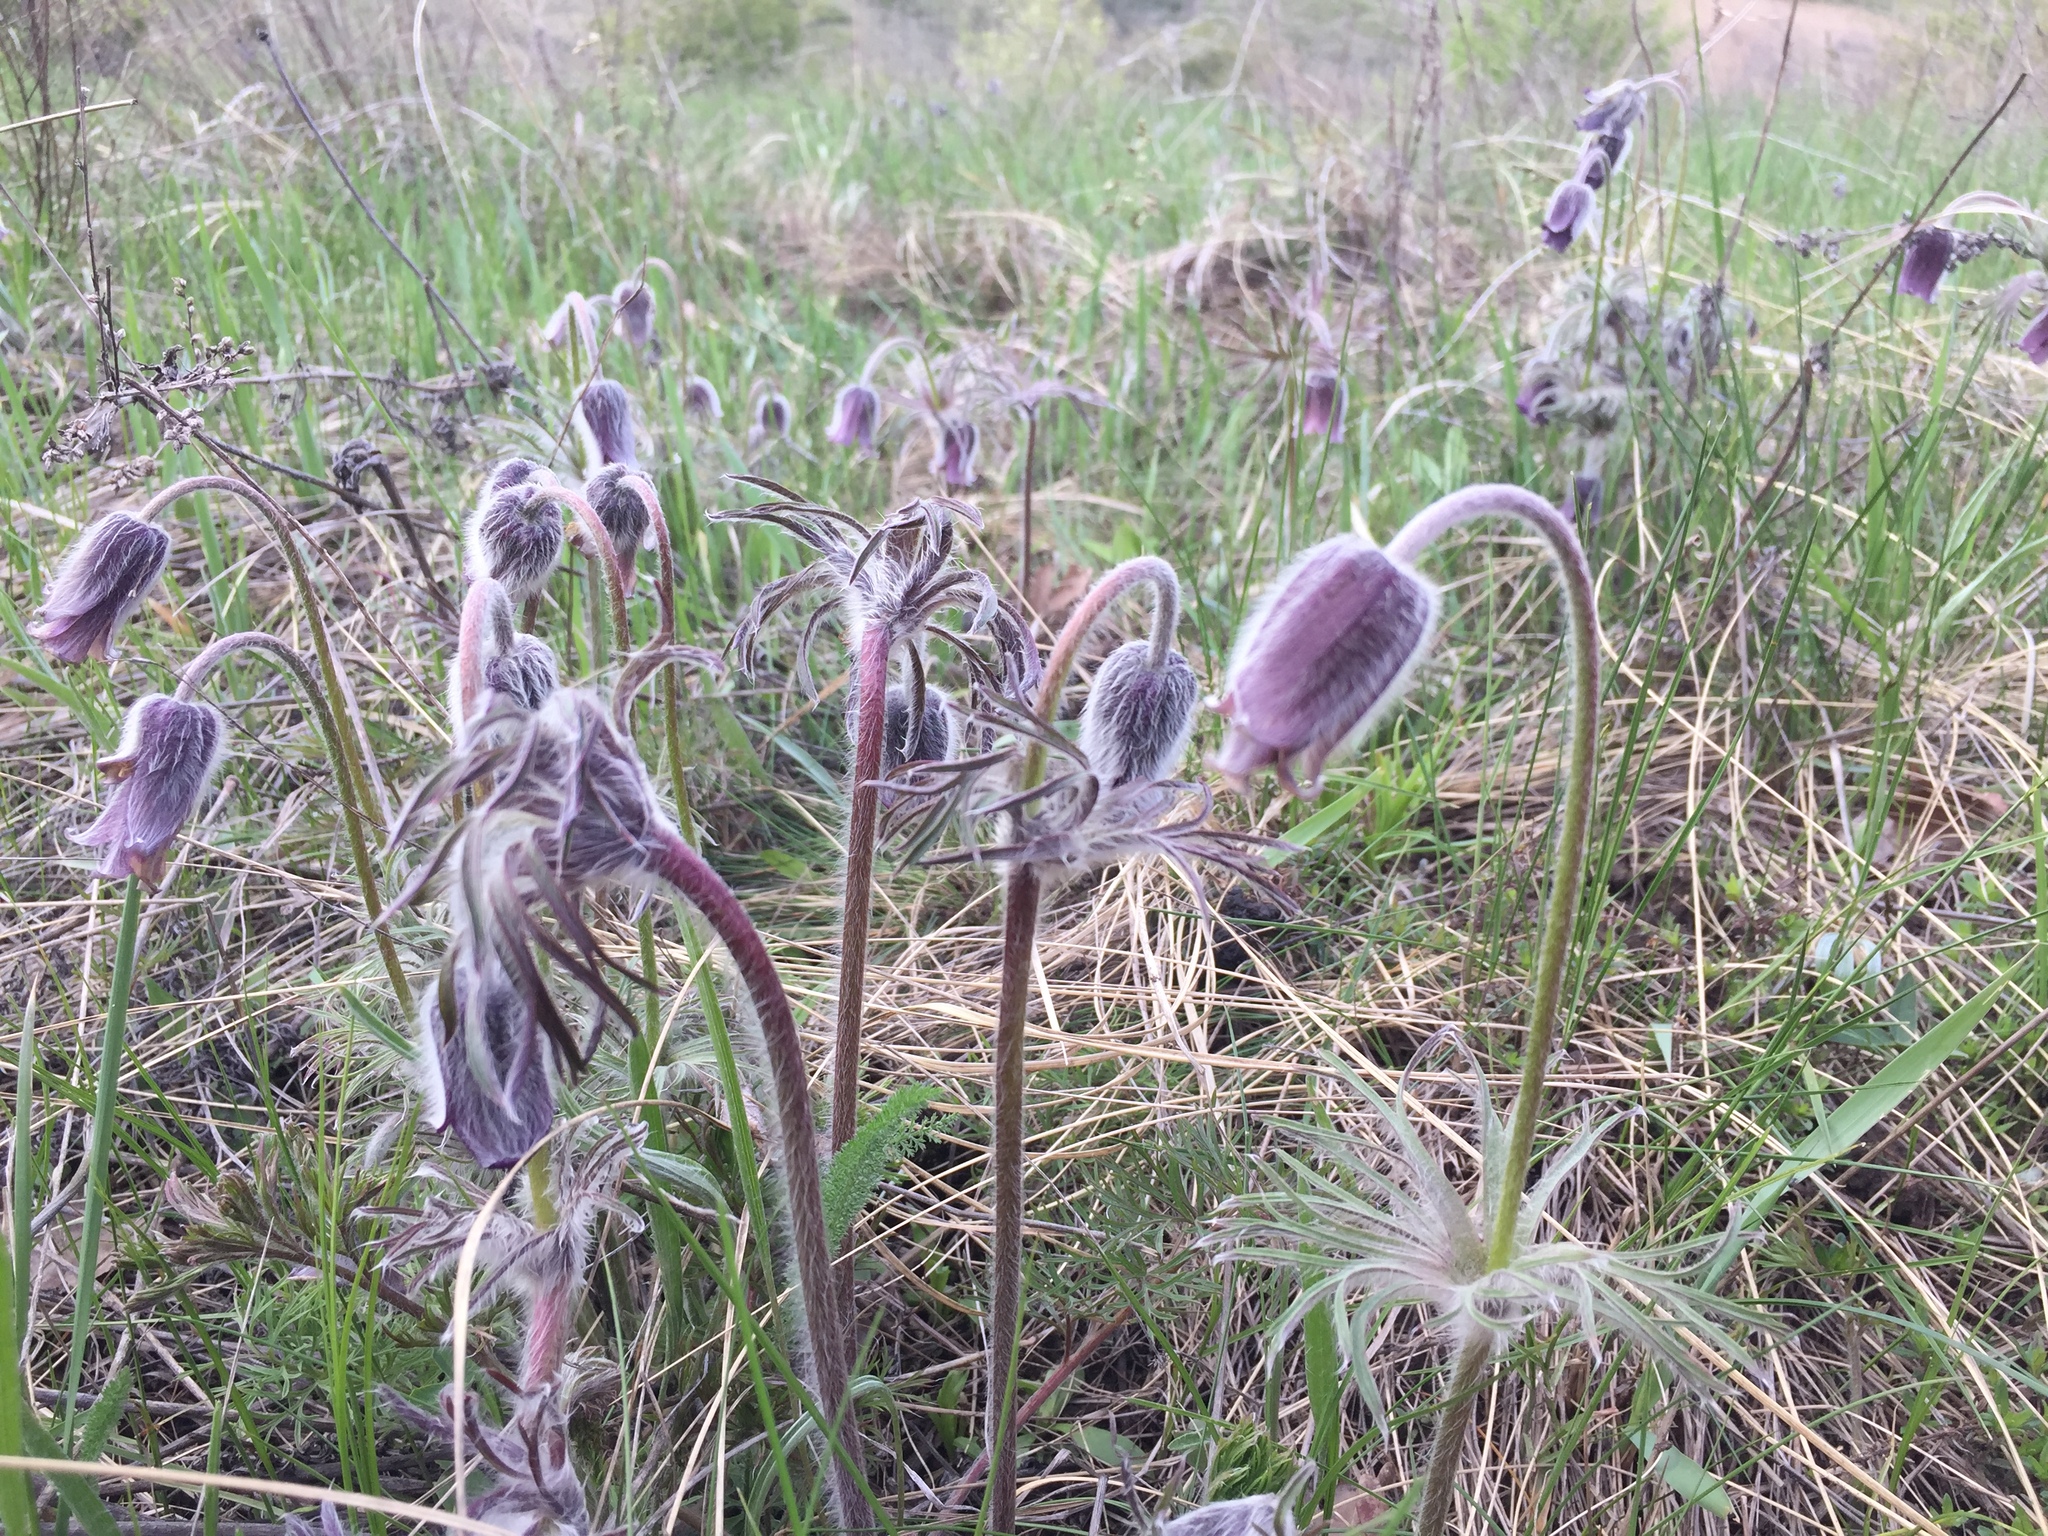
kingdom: Plantae
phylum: Tracheophyta
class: Magnoliopsida
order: Ranunculales
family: Ranunculaceae
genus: Pulsatilla
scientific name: Pulsatilla pratensis
